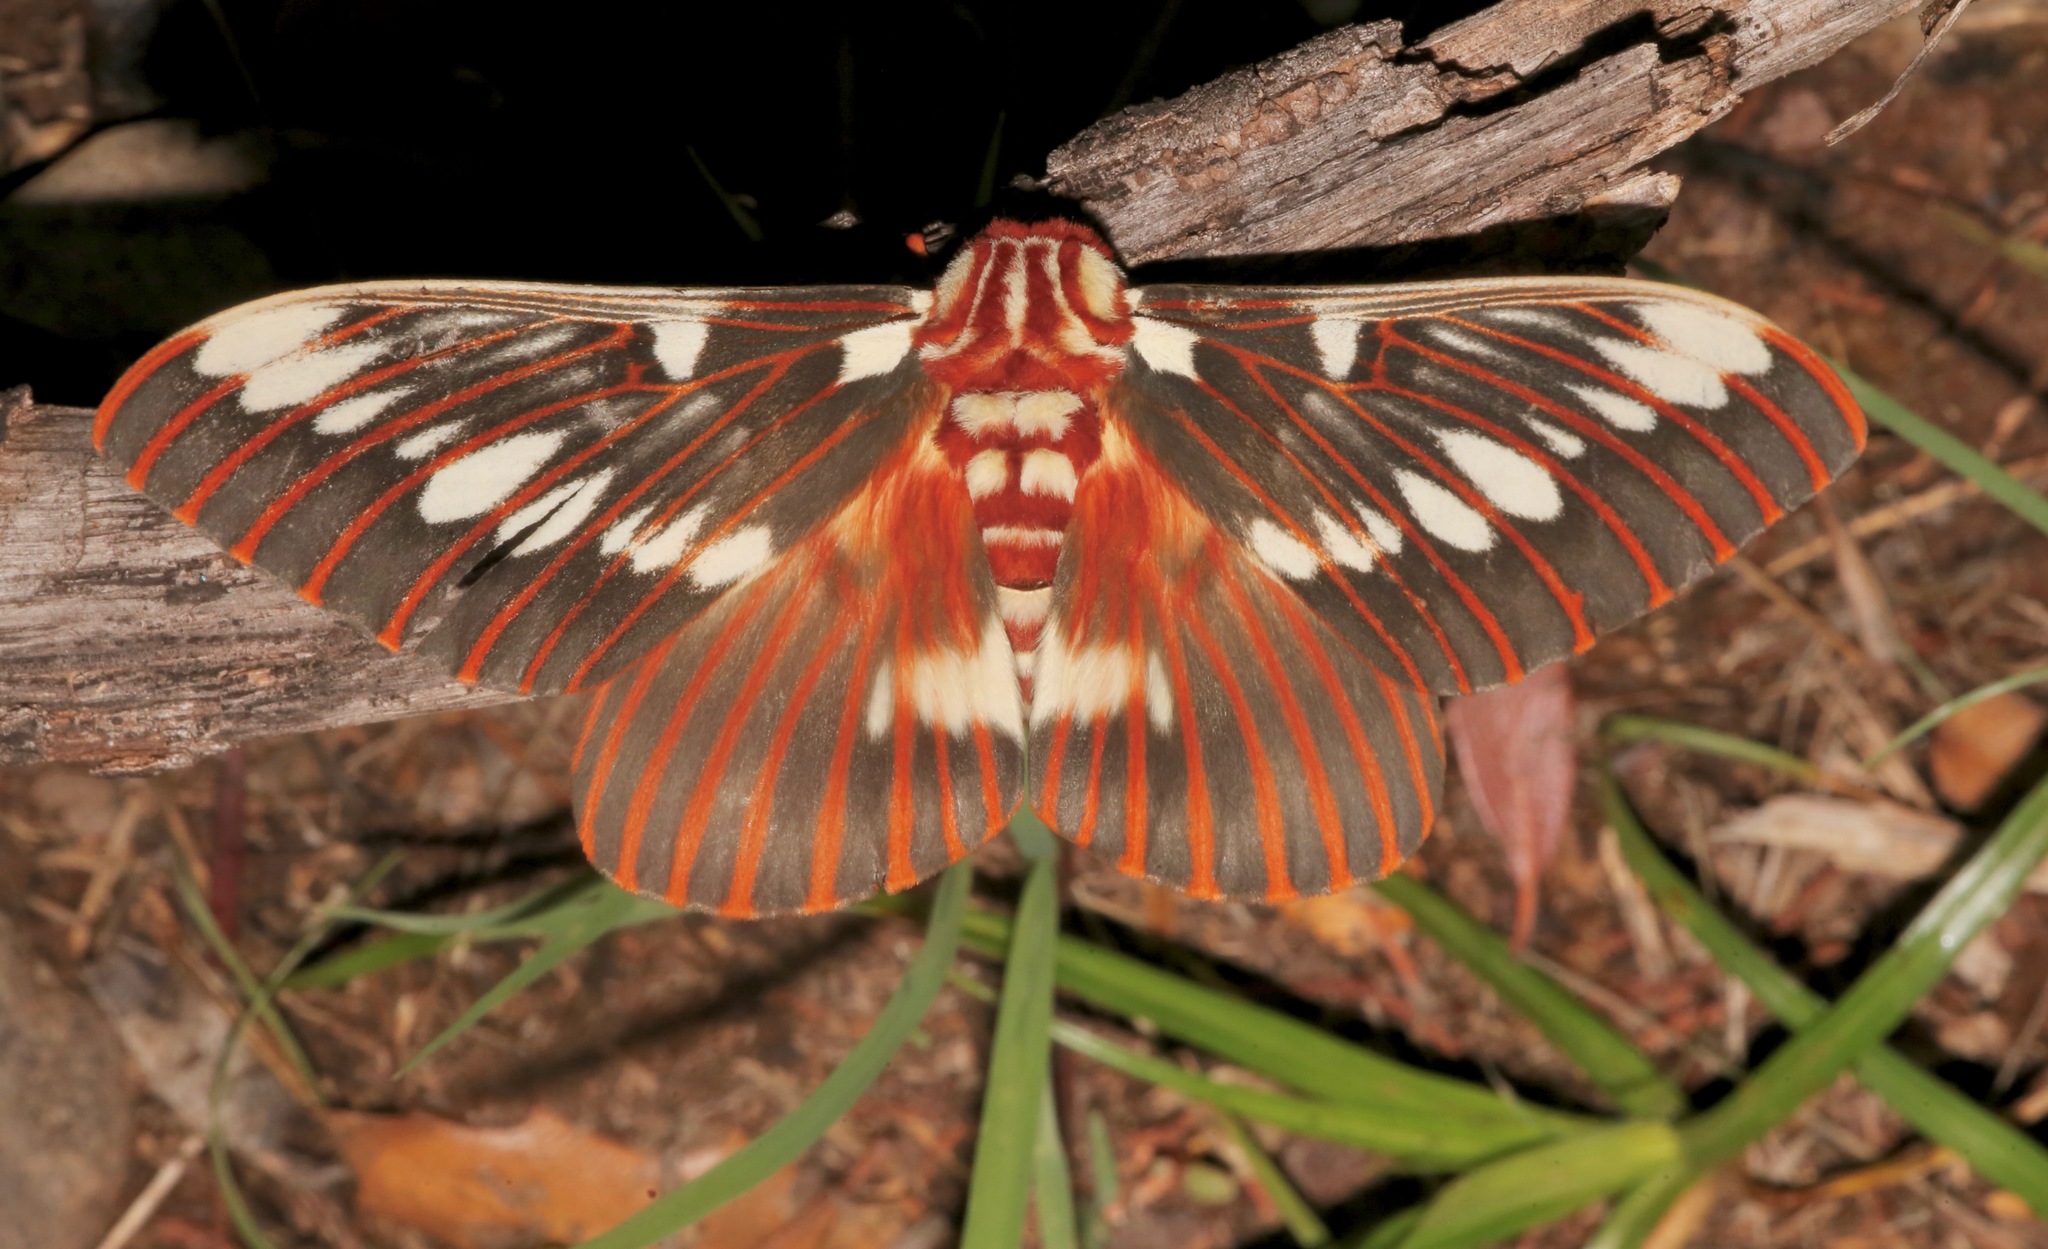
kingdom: Animalia
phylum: Arthropoda
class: Insecta
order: Lepidoptera
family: Saturniidae
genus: Citheronia
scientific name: Citheronia splendens
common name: Splendid royal moth
